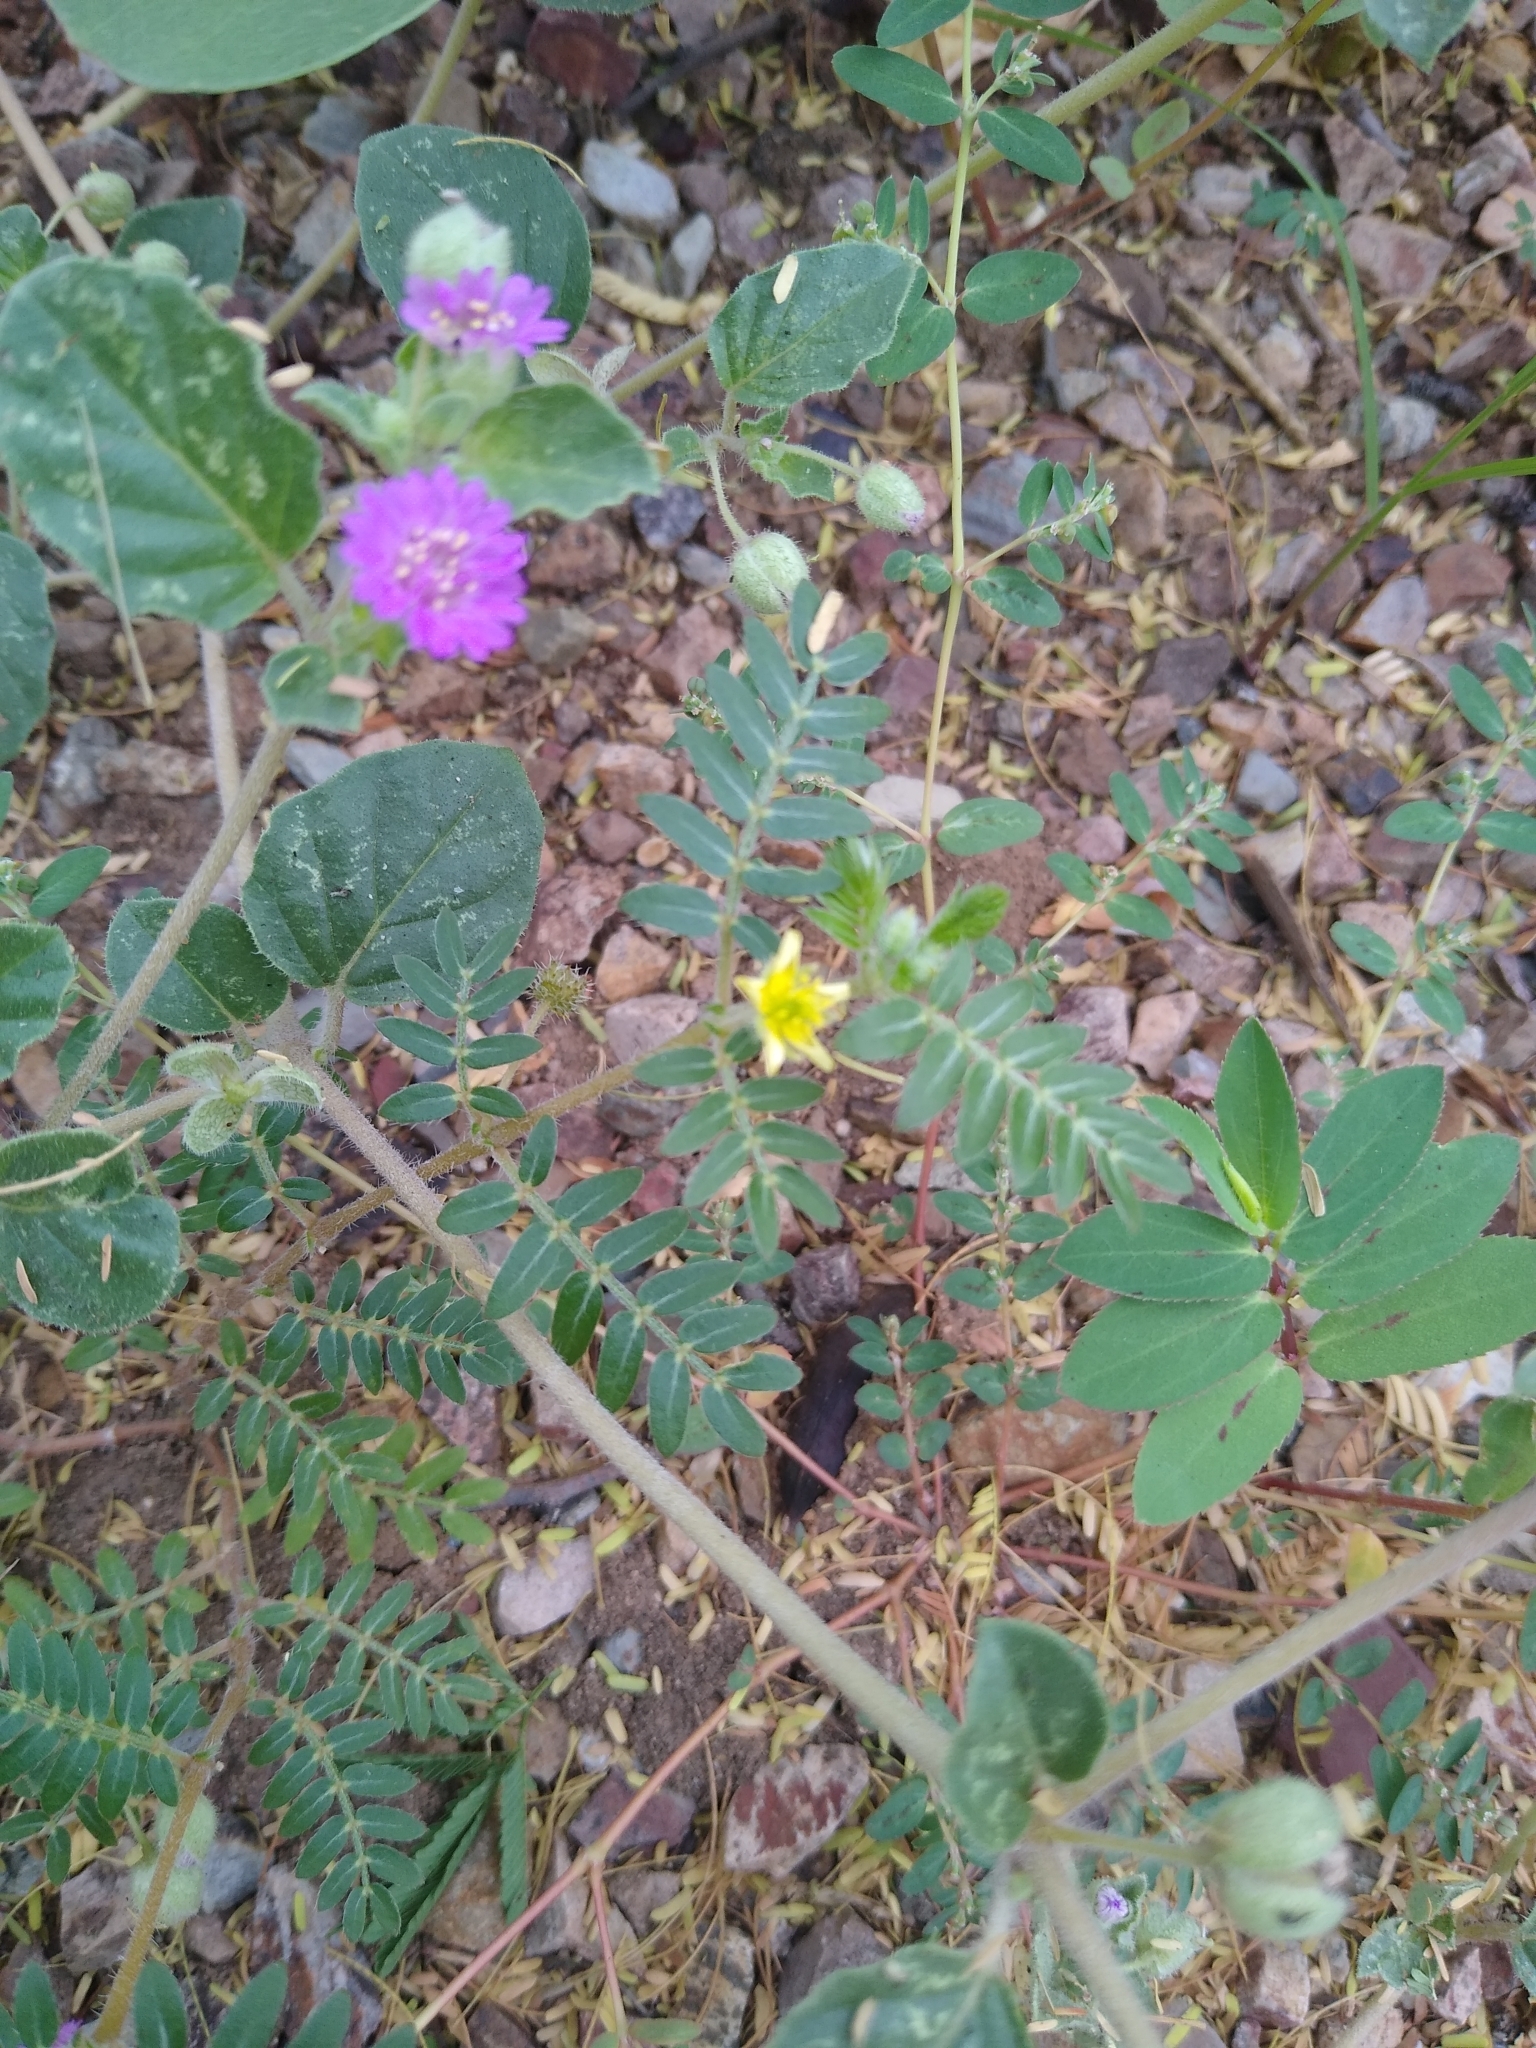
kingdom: Plantae
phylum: Tracheophyta
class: Magnoliopsida
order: Zygophyllales
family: Zygophyllaceae
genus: Tribulus
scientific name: Tribulus terrestris
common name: Puncturevine
